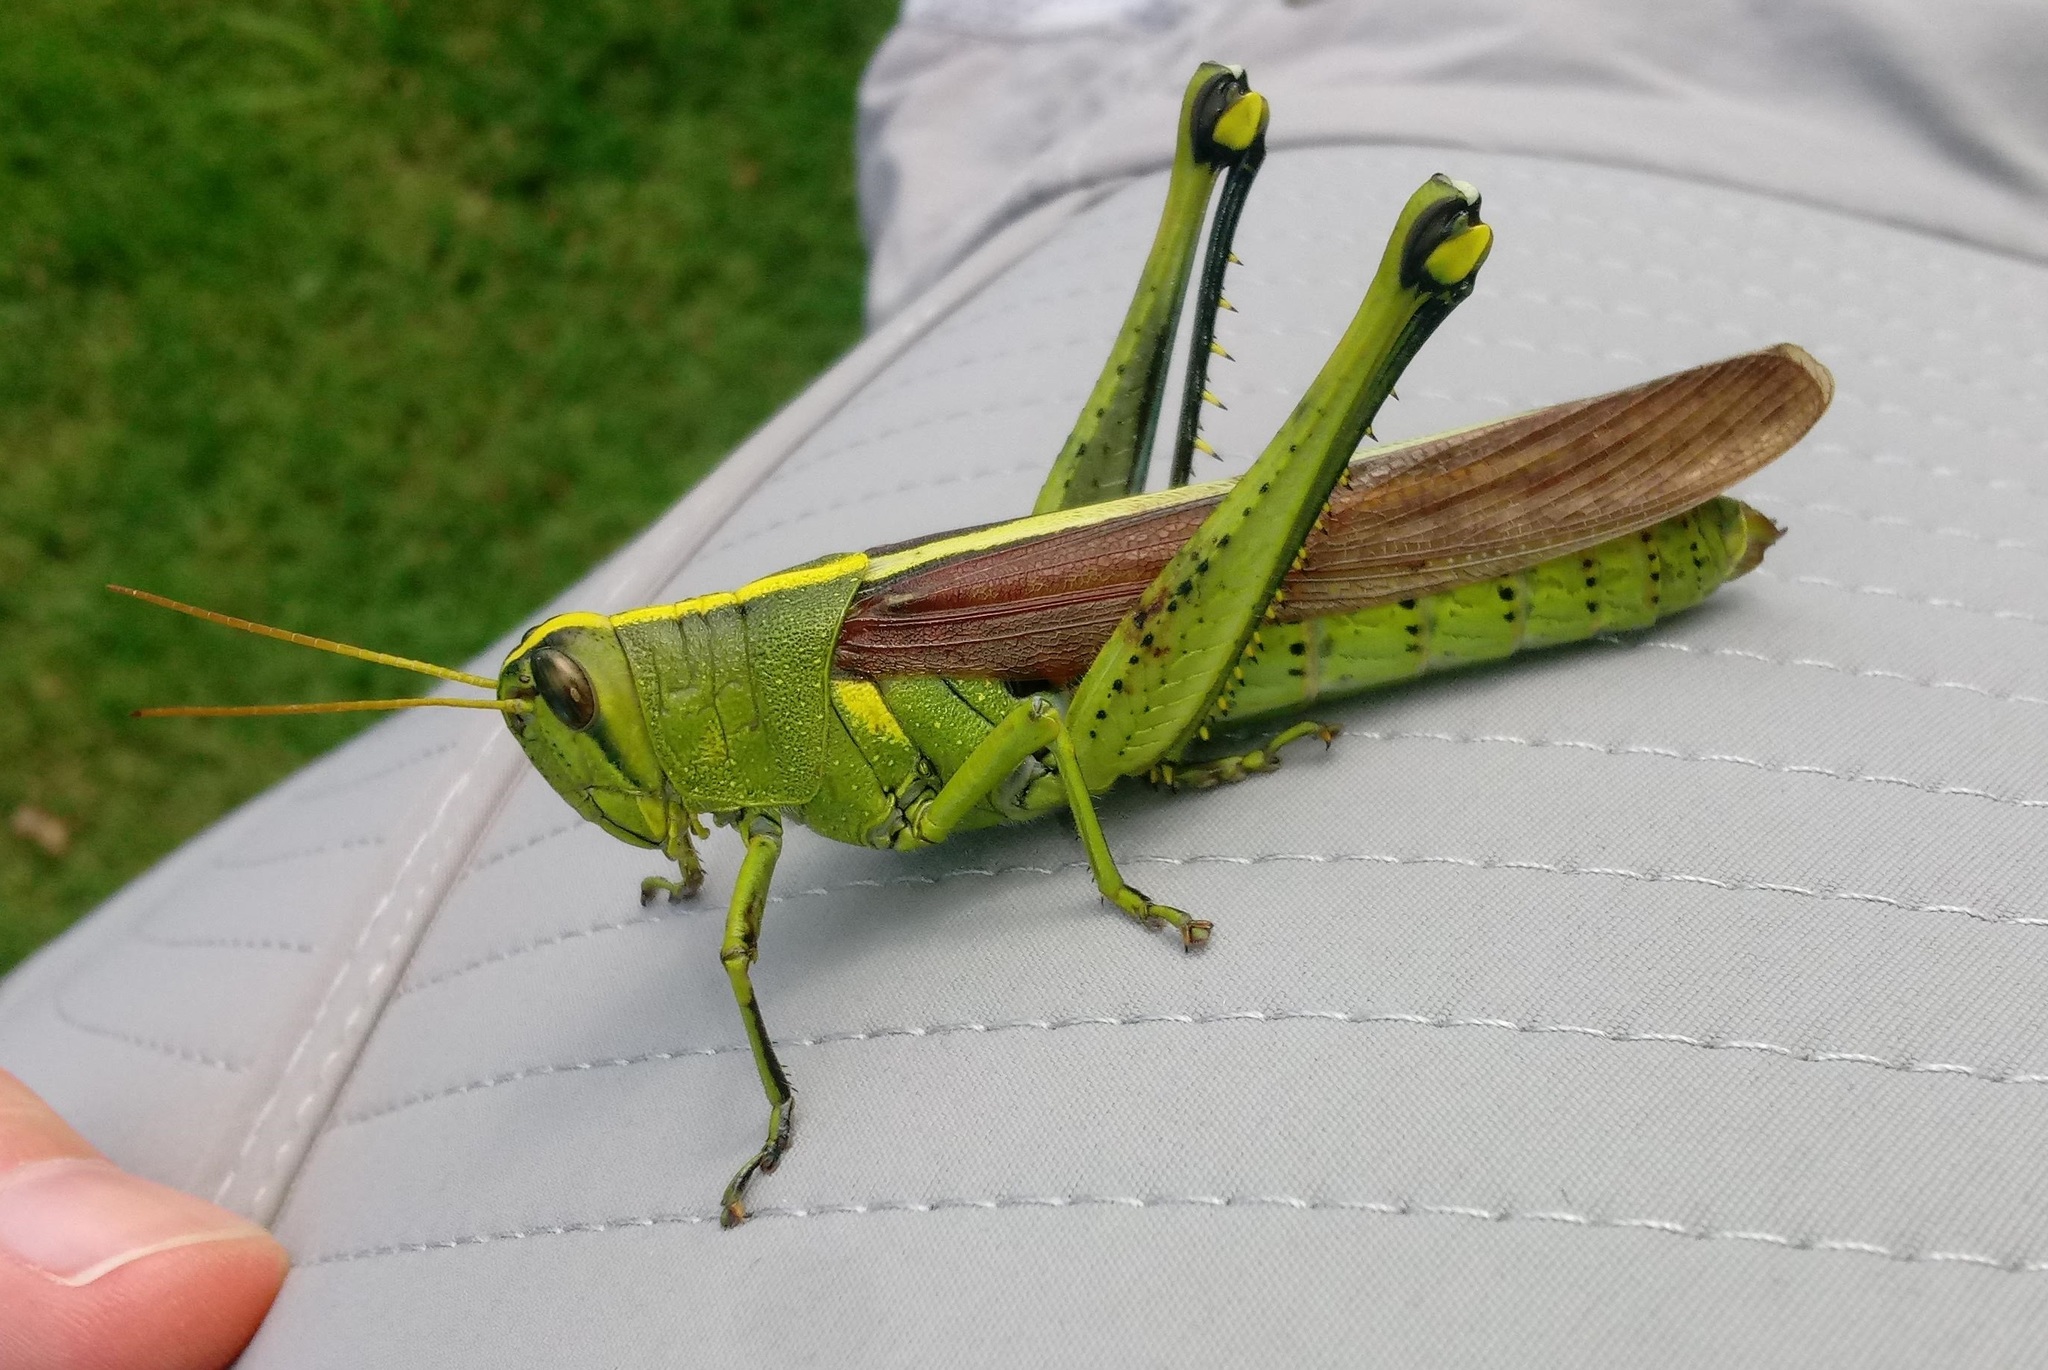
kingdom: Animalia
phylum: Arthropoda
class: Insecta
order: Orthoptera
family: Acrididae
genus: Schistocerca
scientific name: Schistocerca obscura
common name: Obscure bird grasshopper
